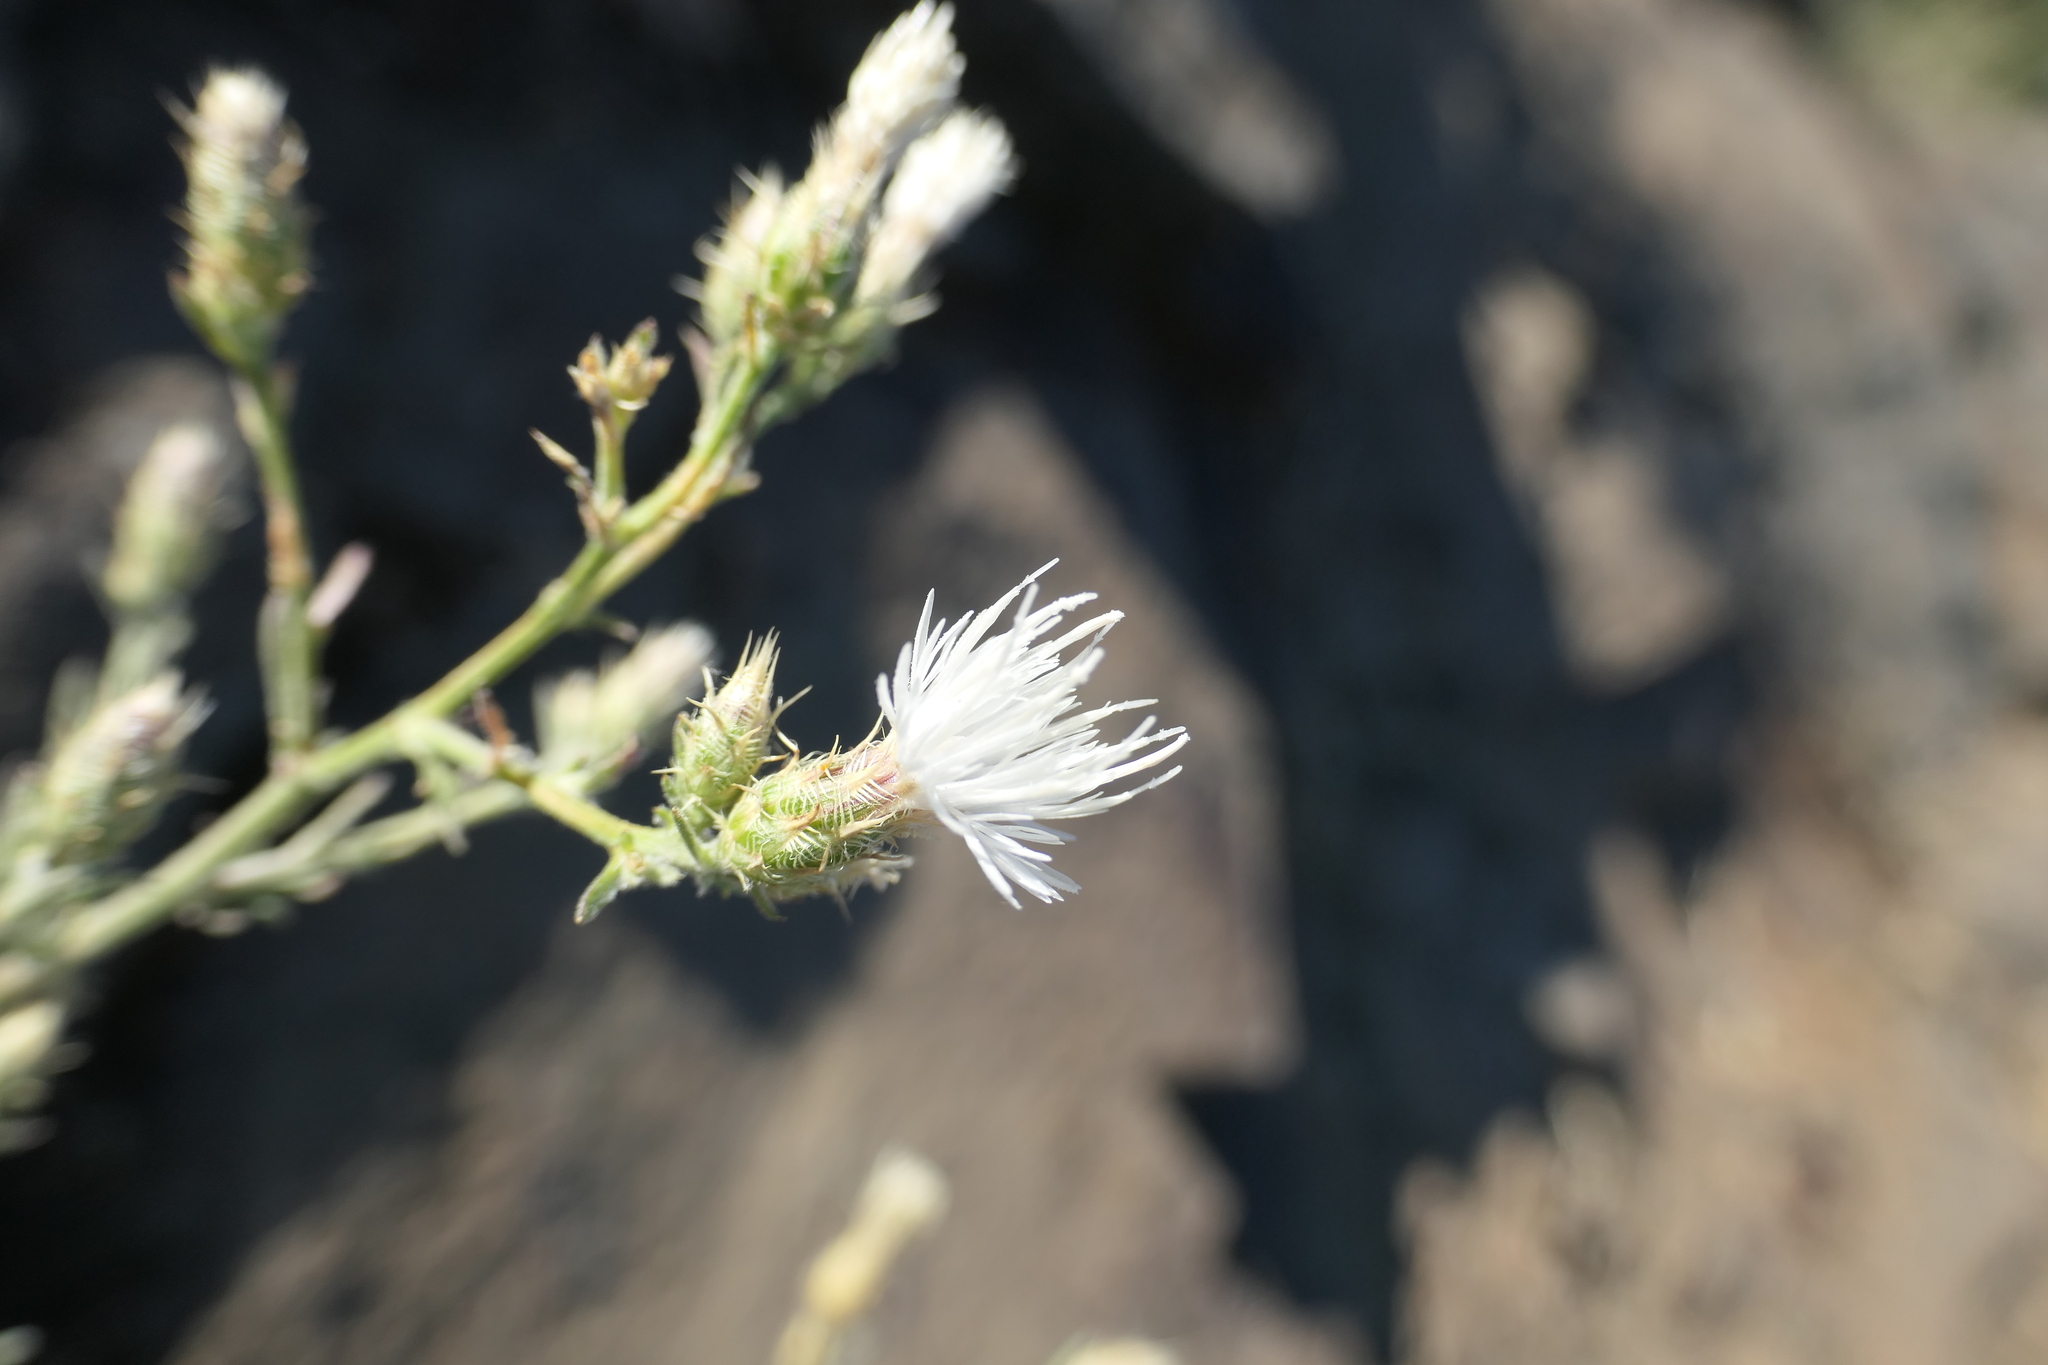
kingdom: Plantae
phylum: Tracheophyta
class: Magnoliopsida
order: Asterales
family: Asteraceae
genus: Centaurea
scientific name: Centaurea diffusa
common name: Diffuse knapweed
